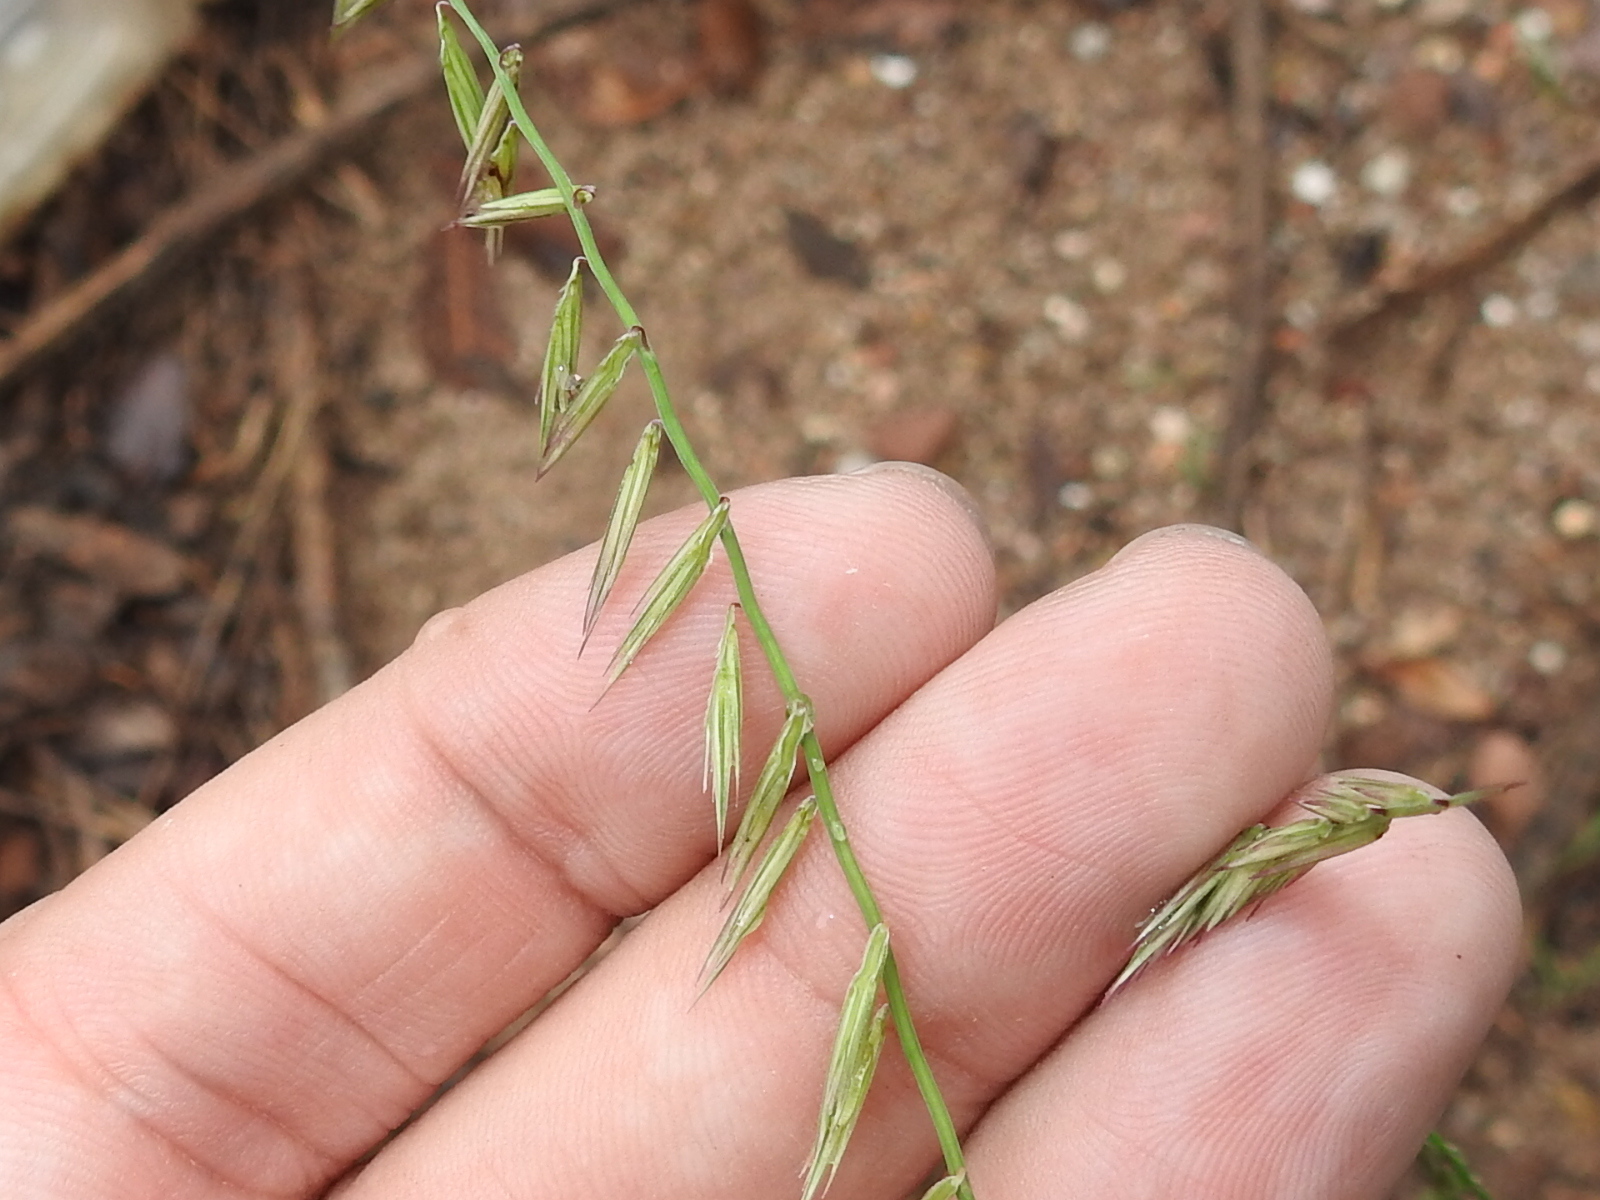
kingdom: Plantae
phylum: Tracheophyta
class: Liliopsida
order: Poales
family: Poaceae
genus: Bouteloua
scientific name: Bouteloua curtipendula
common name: Side-oats grama
